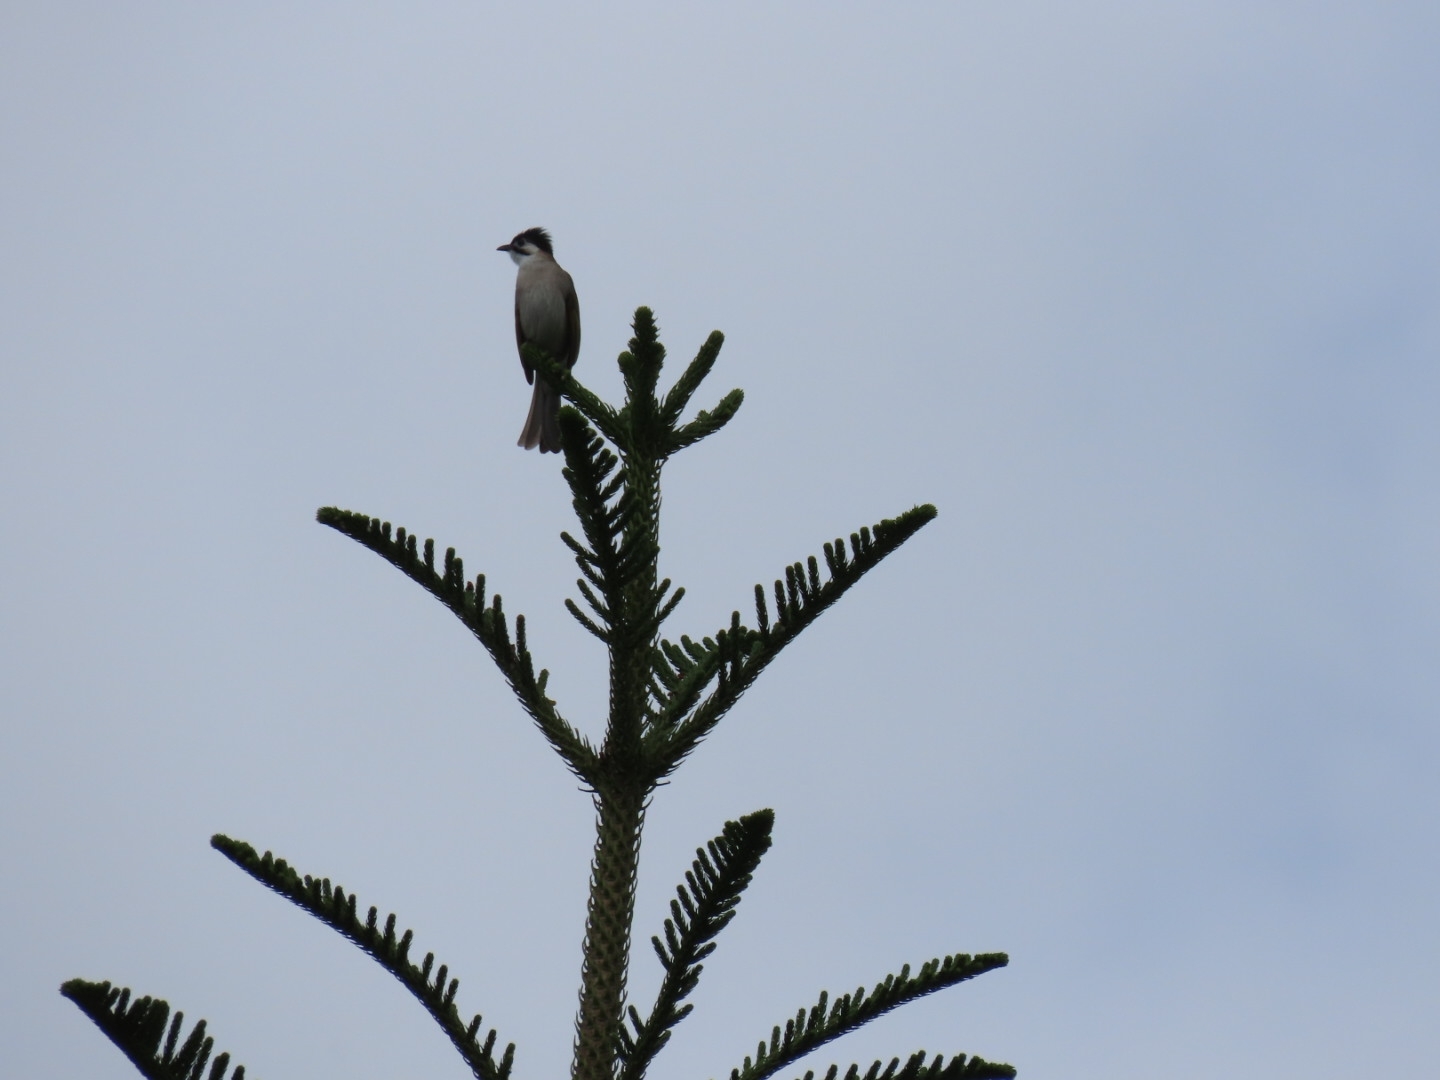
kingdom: Animalia
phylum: Chordata
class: Aves
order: Passeriformes
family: Pycnonotidae
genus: Pycnonotus
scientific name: Pycnonotus taivanus
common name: Styan's bulbul
